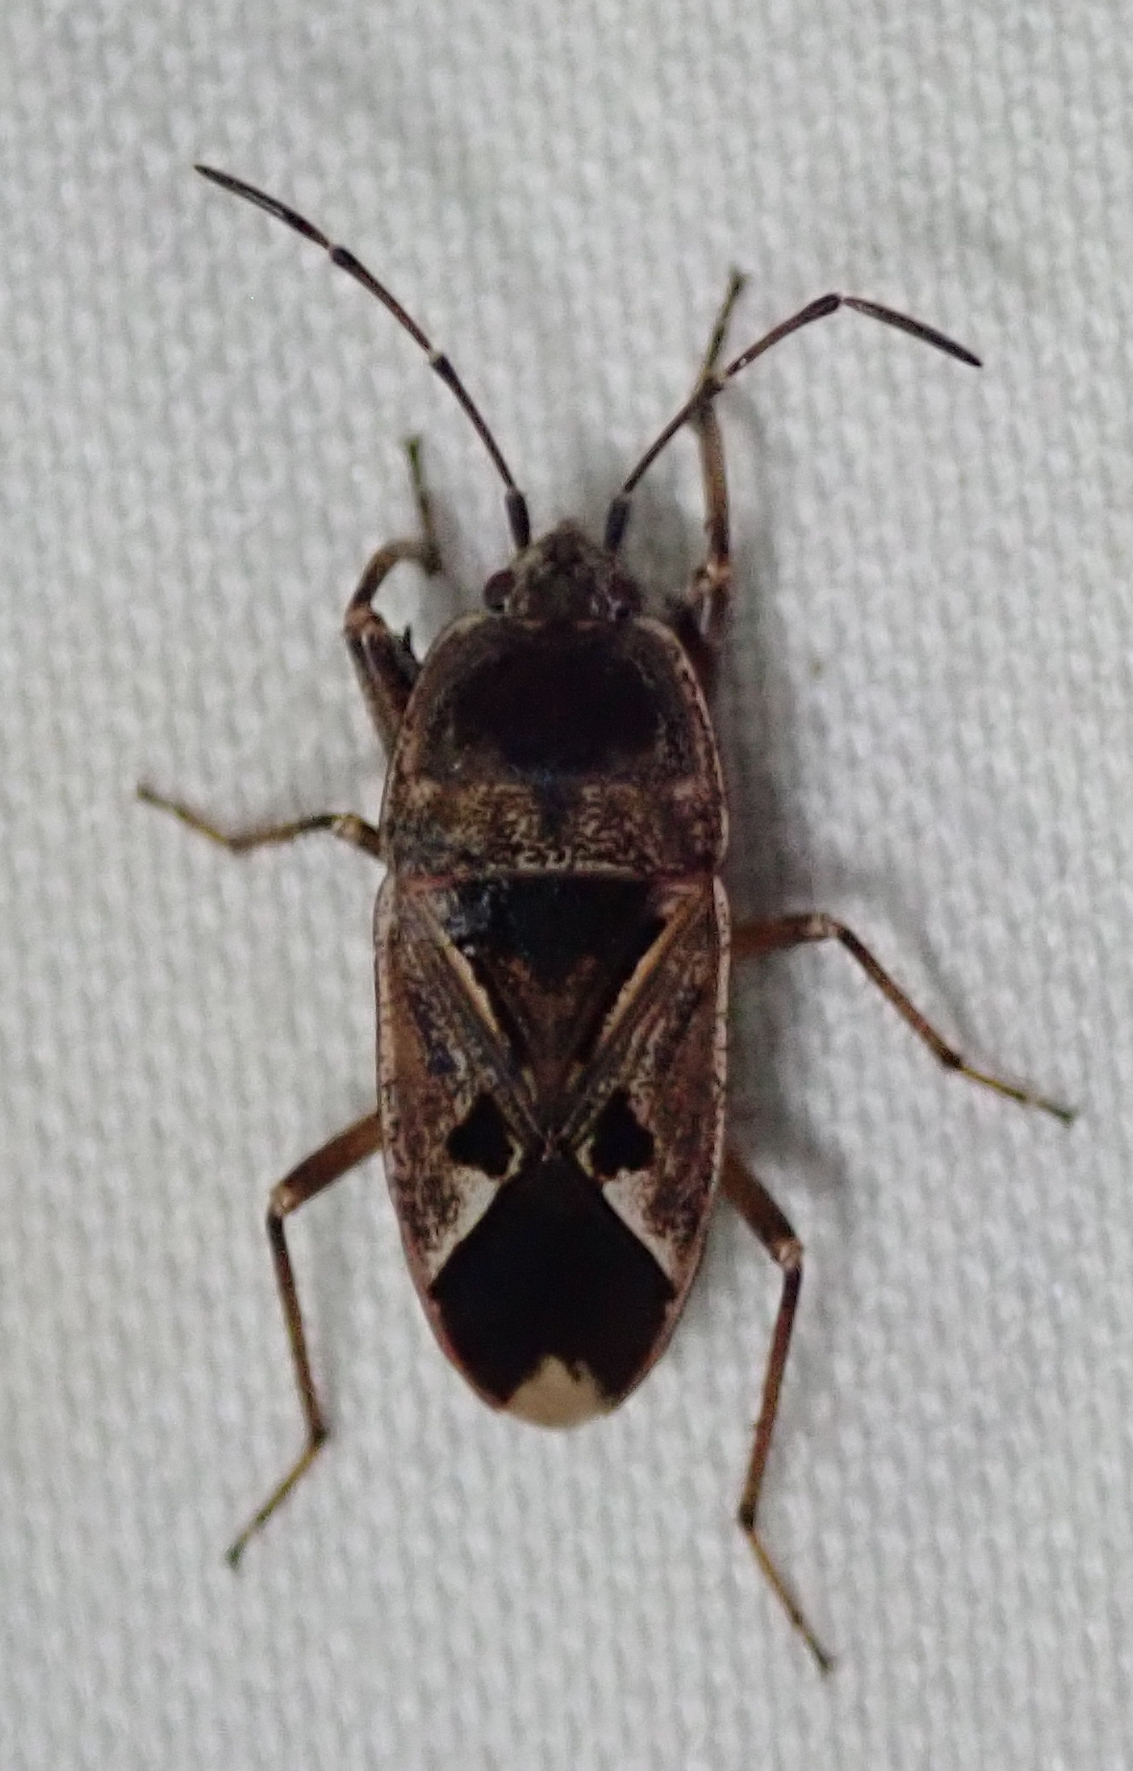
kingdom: Animalia
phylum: Arthropoda
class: Insecta
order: Hemiptera
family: Rhyparochromidae
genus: Naphius
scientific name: Naphius apicalis
